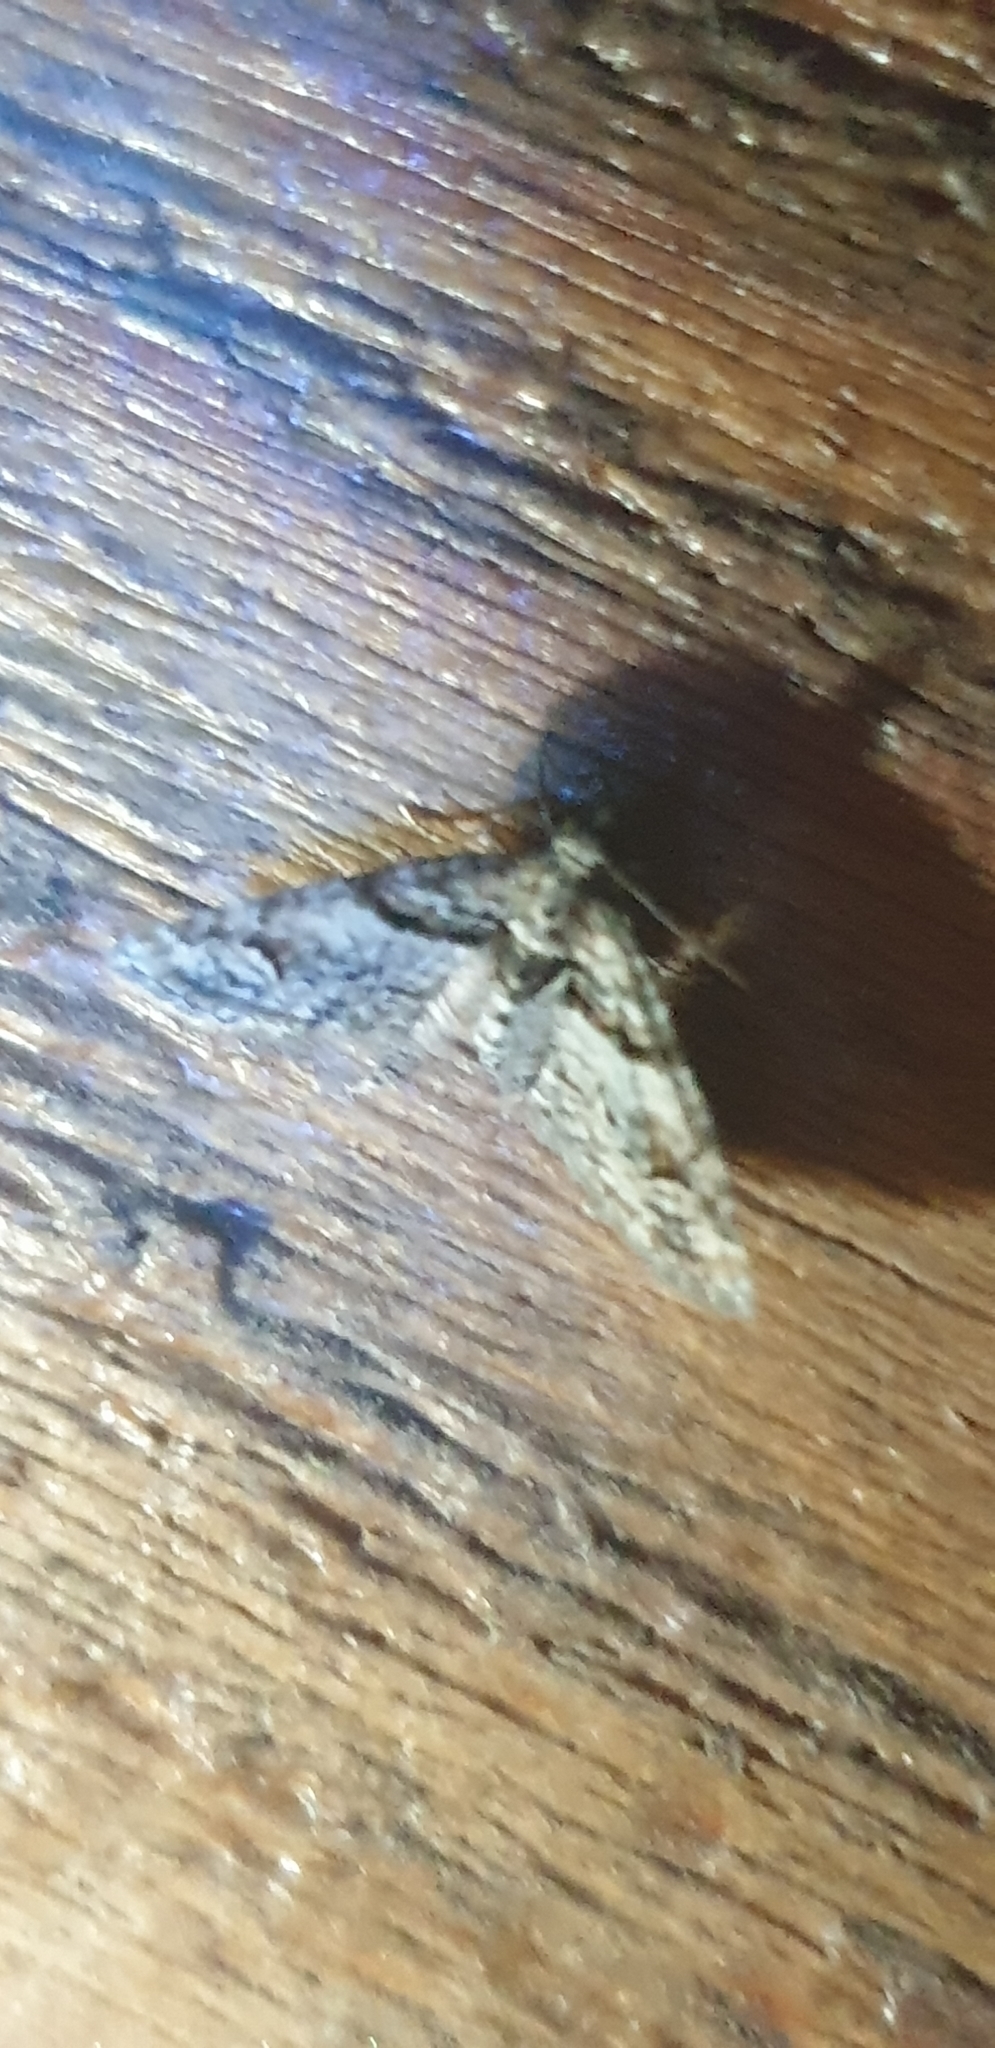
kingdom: Animalia
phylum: Arthropoda
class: Insecta
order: Lepidoptera
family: Geometridae
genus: Phrissogonus
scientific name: Phrissogonus laticostata
